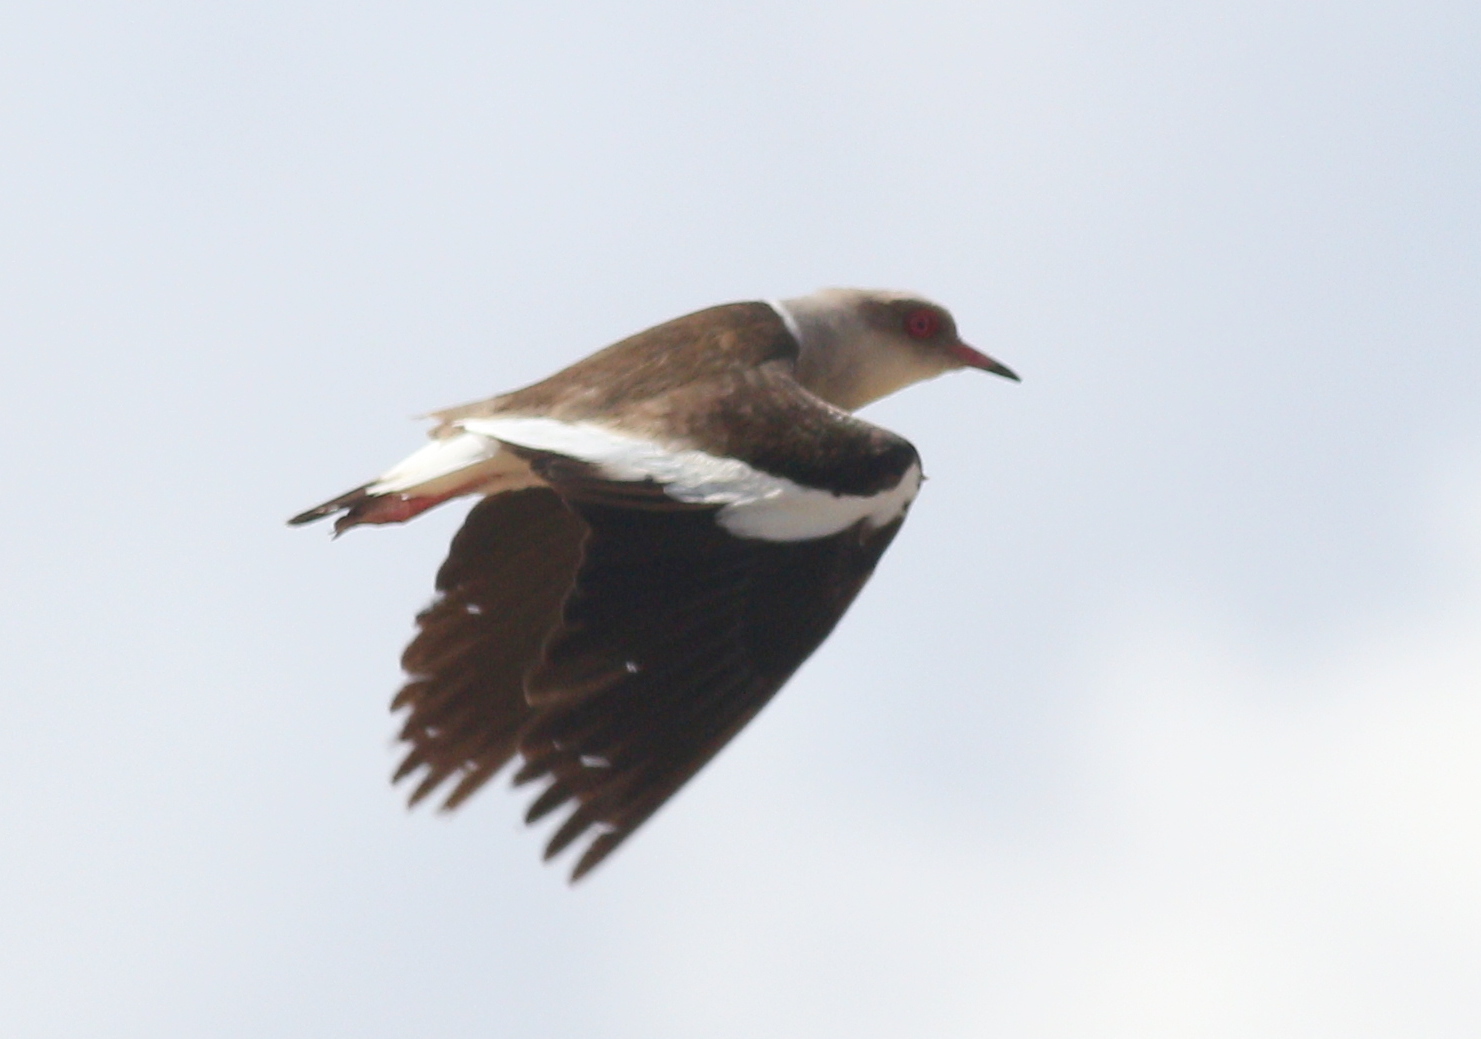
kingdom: Animalia
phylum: Chordata
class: Aves
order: Charadriiformes
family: Charadriidae
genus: Vanellus
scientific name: Vanellus resplendens
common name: Andean lapwing
